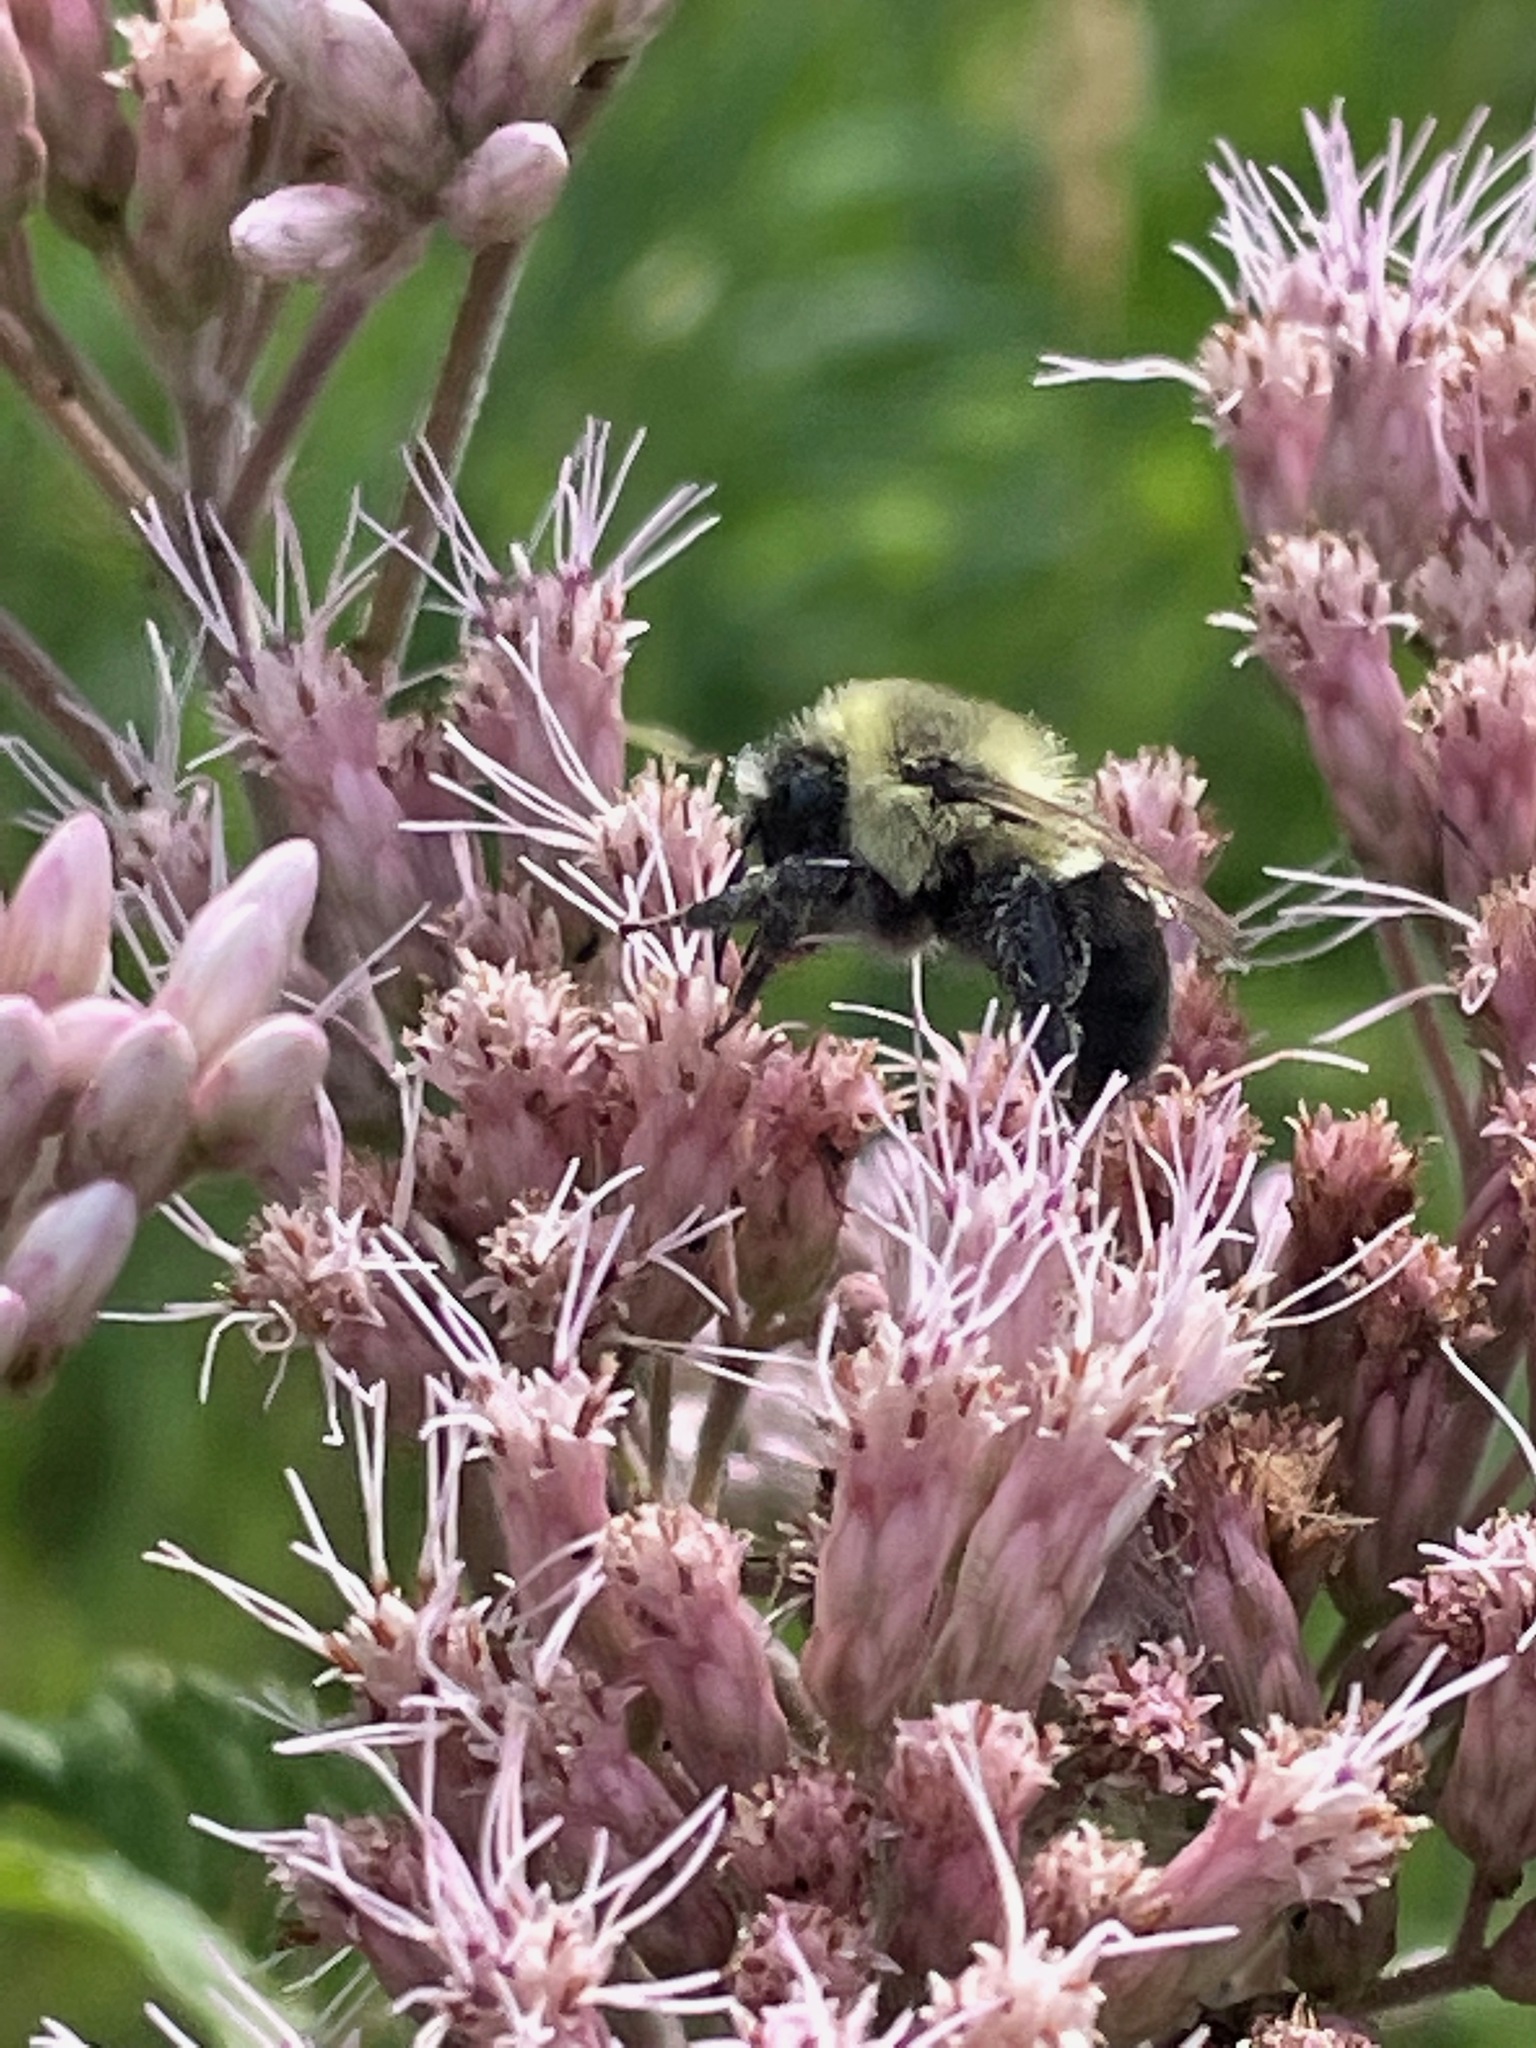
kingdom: Animalia
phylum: Arthropoda
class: Insecta
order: Hymenoptera
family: Apidae
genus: Bombus
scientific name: Bombus impatiens
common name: Common eastern bumble bee
